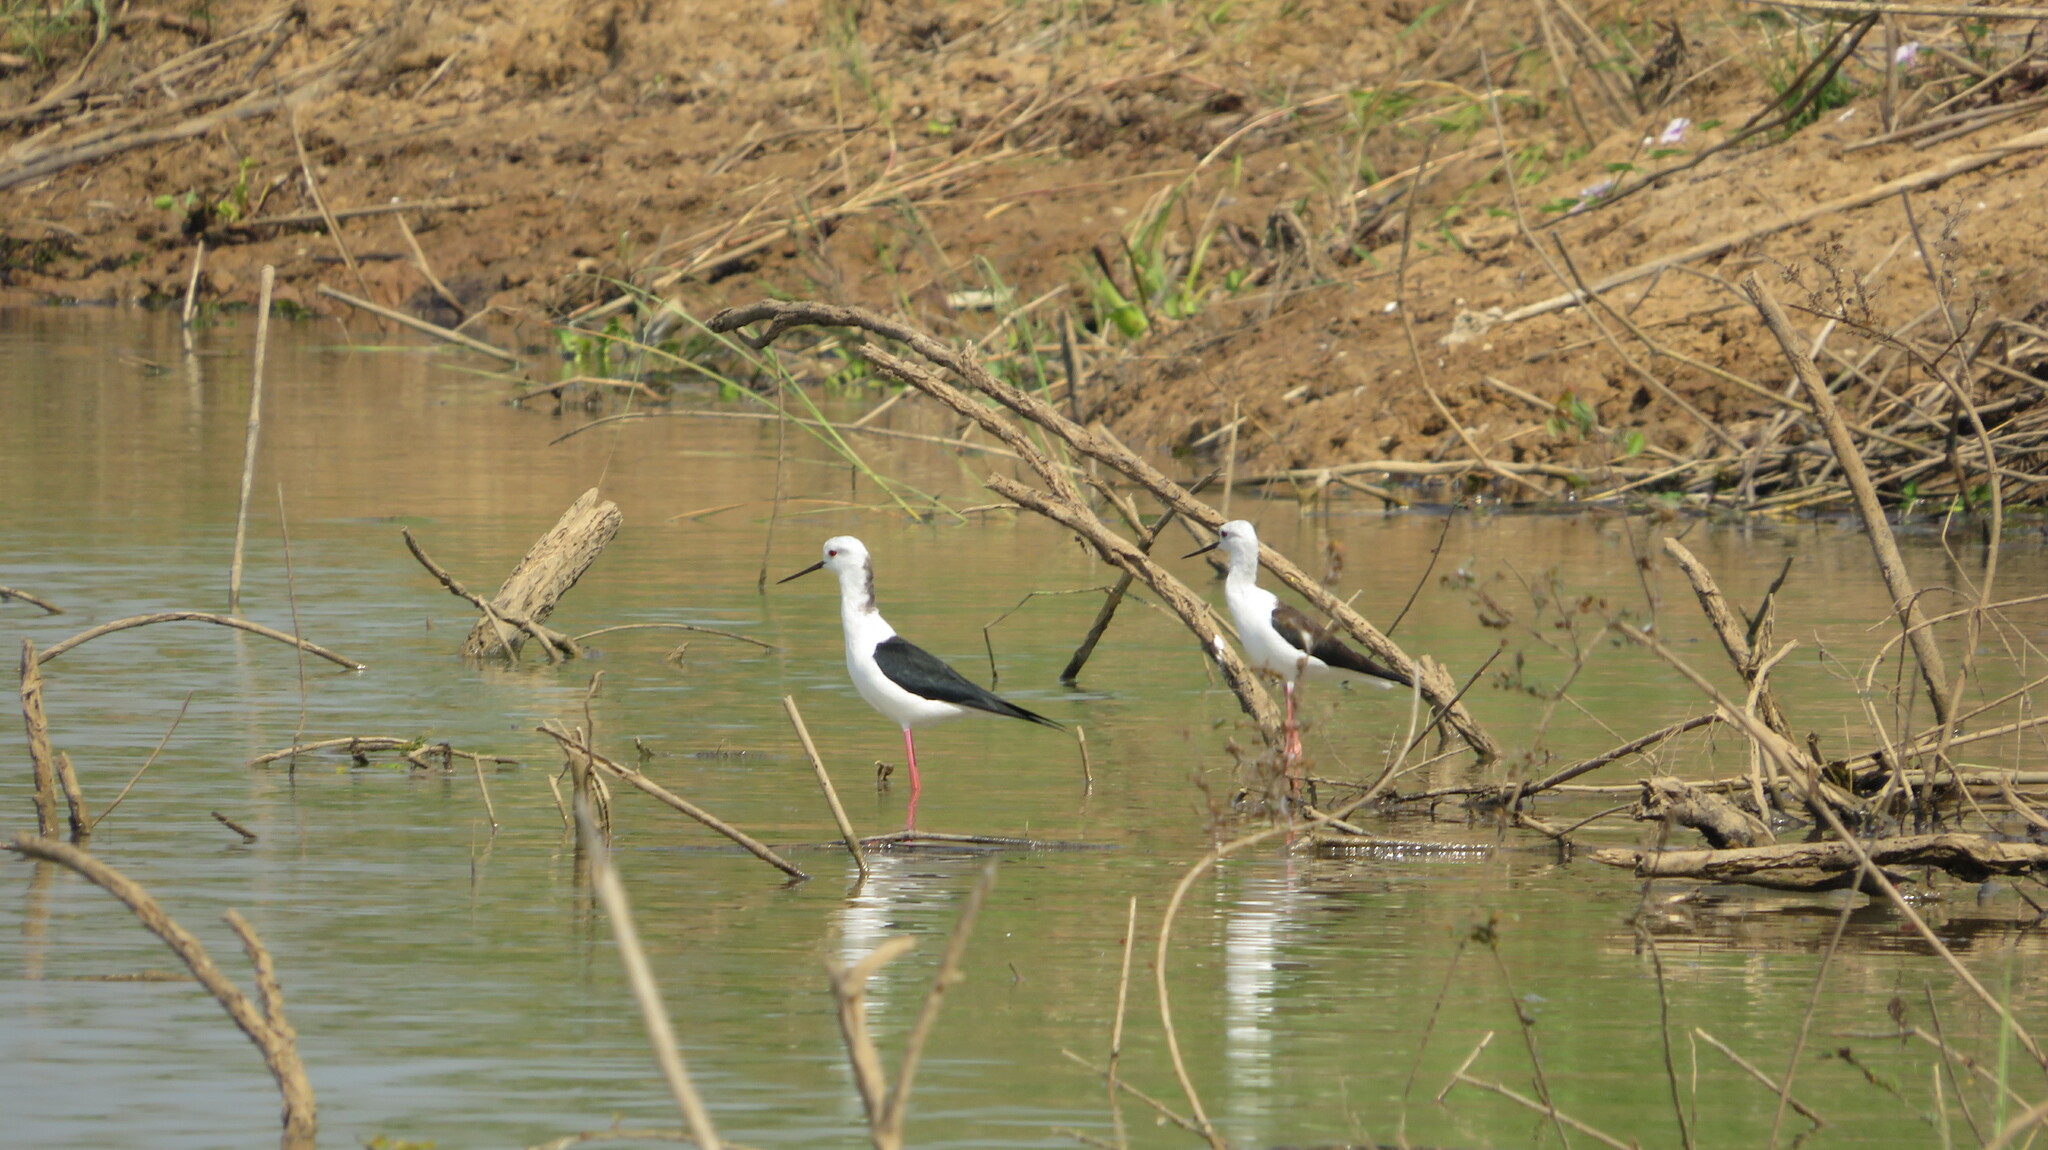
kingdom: Animalia
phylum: Chordata
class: Aves
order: Charadriiformes
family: Recurvirostridae
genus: Himantopus
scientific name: Himantopus himantopus
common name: Black-winged stilt
